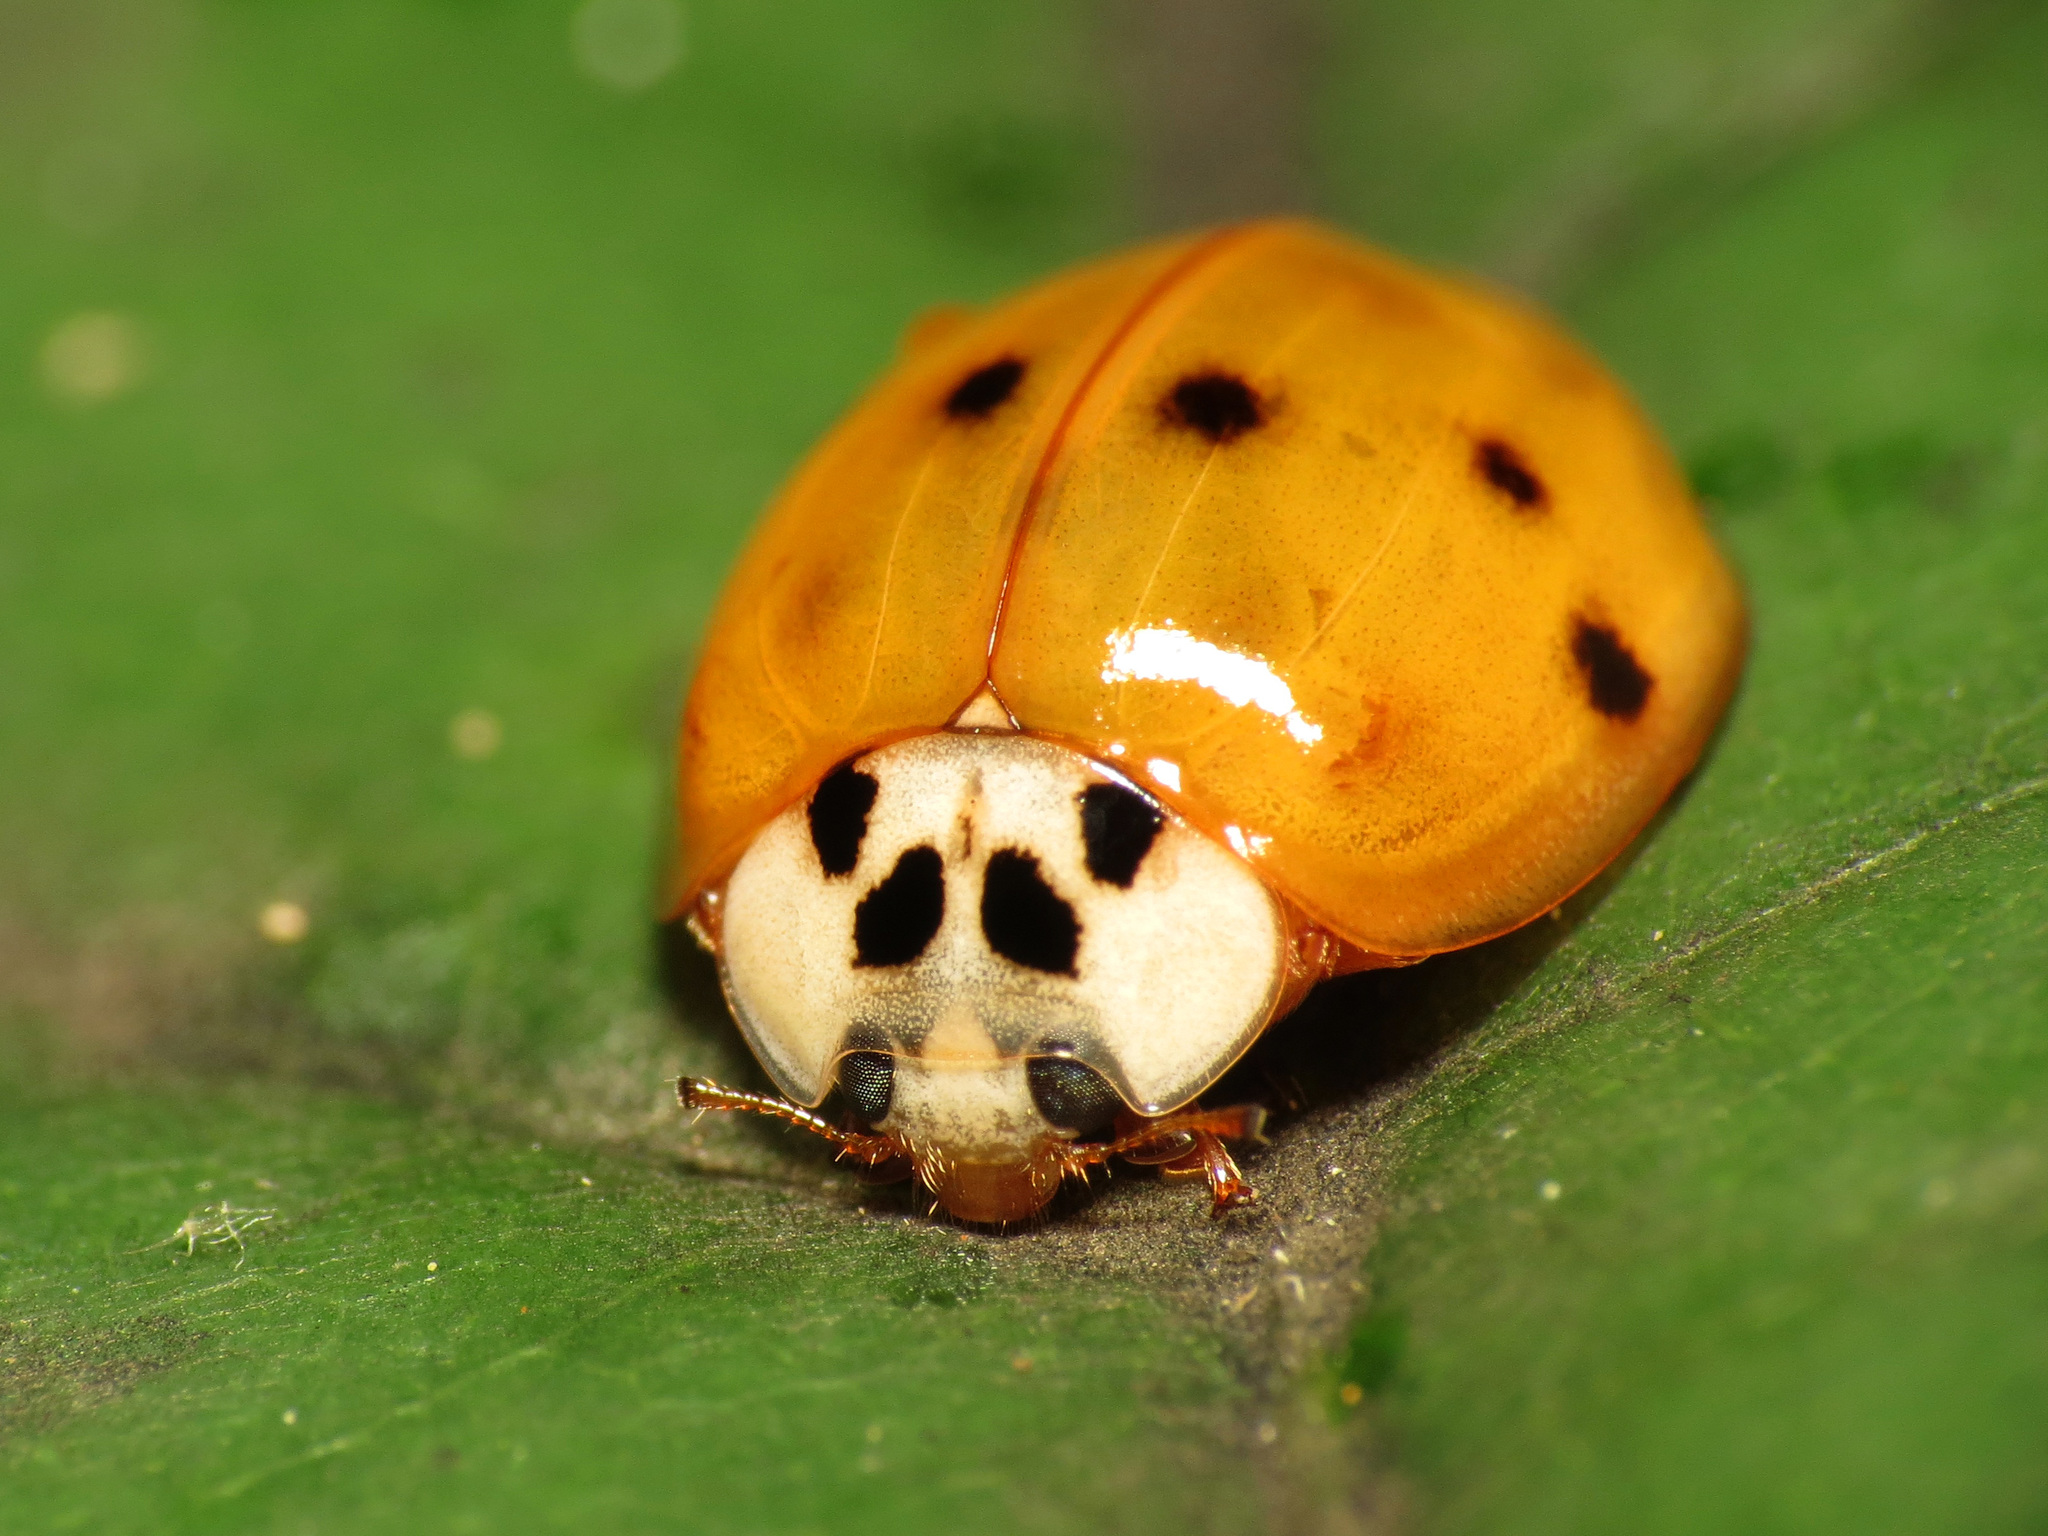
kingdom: Animalia
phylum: Arthropoda
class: Insecta
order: Coleoptera
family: Coccinellidae
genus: Harmonia
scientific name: Harmonia axyridis
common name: Harlequin ladybird
